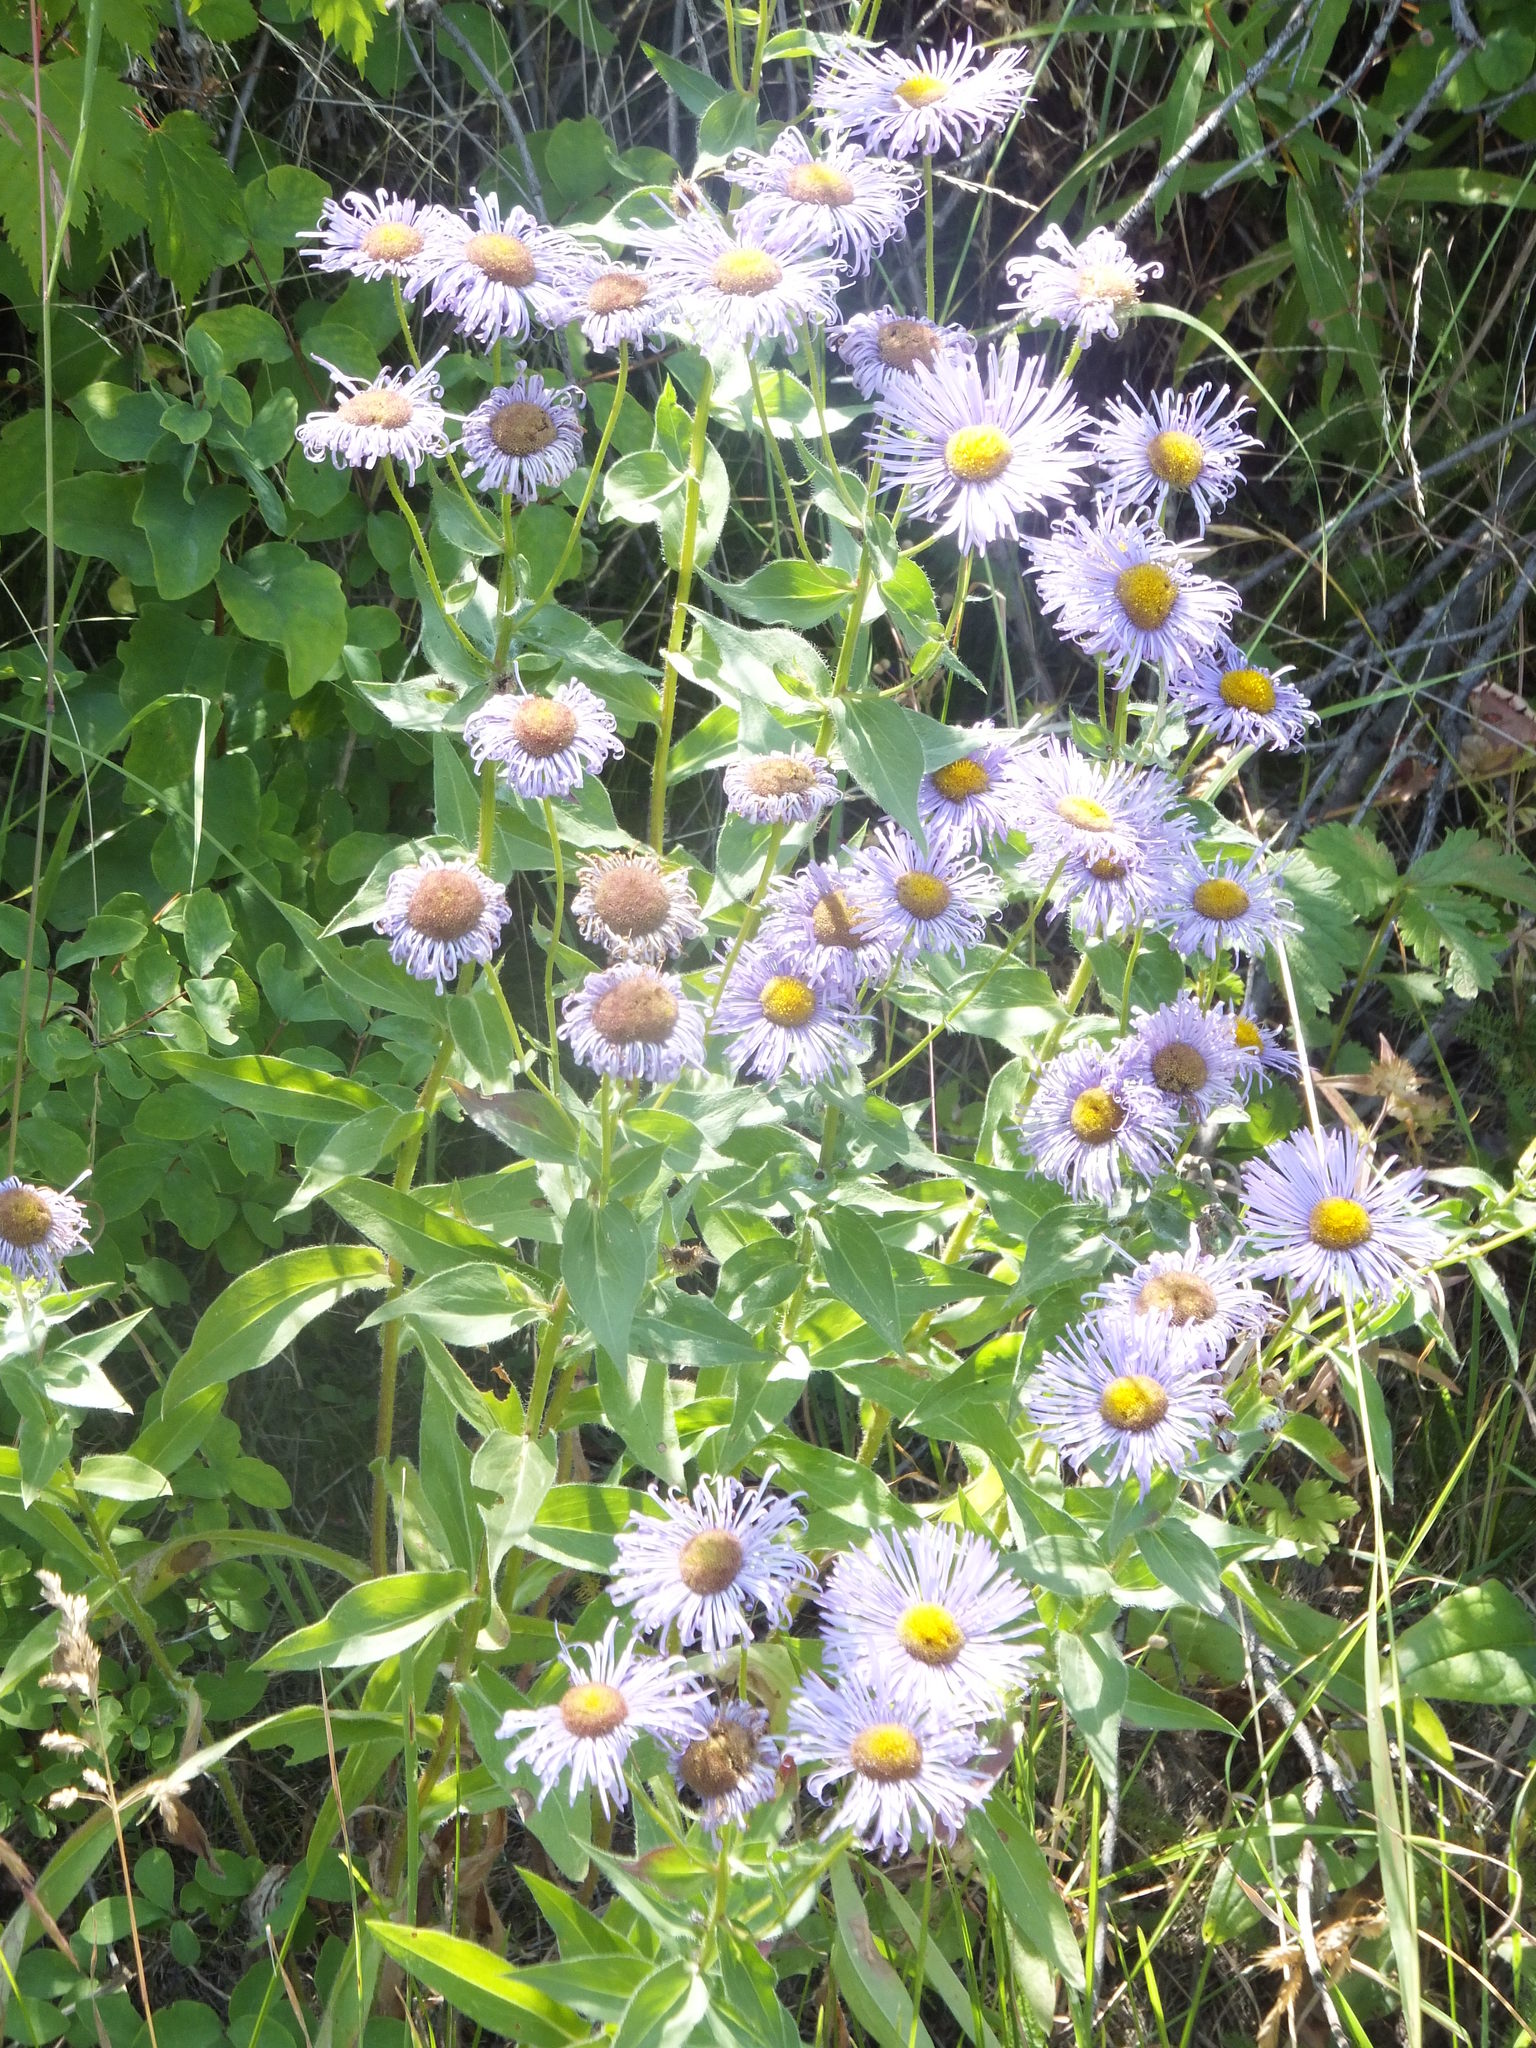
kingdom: Plantae
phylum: Tracheophyta
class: Magnoliopsida
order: Asterales
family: Asteraceae
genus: Erigeron
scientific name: Erigeron speciosus
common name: Aspen fleabane
